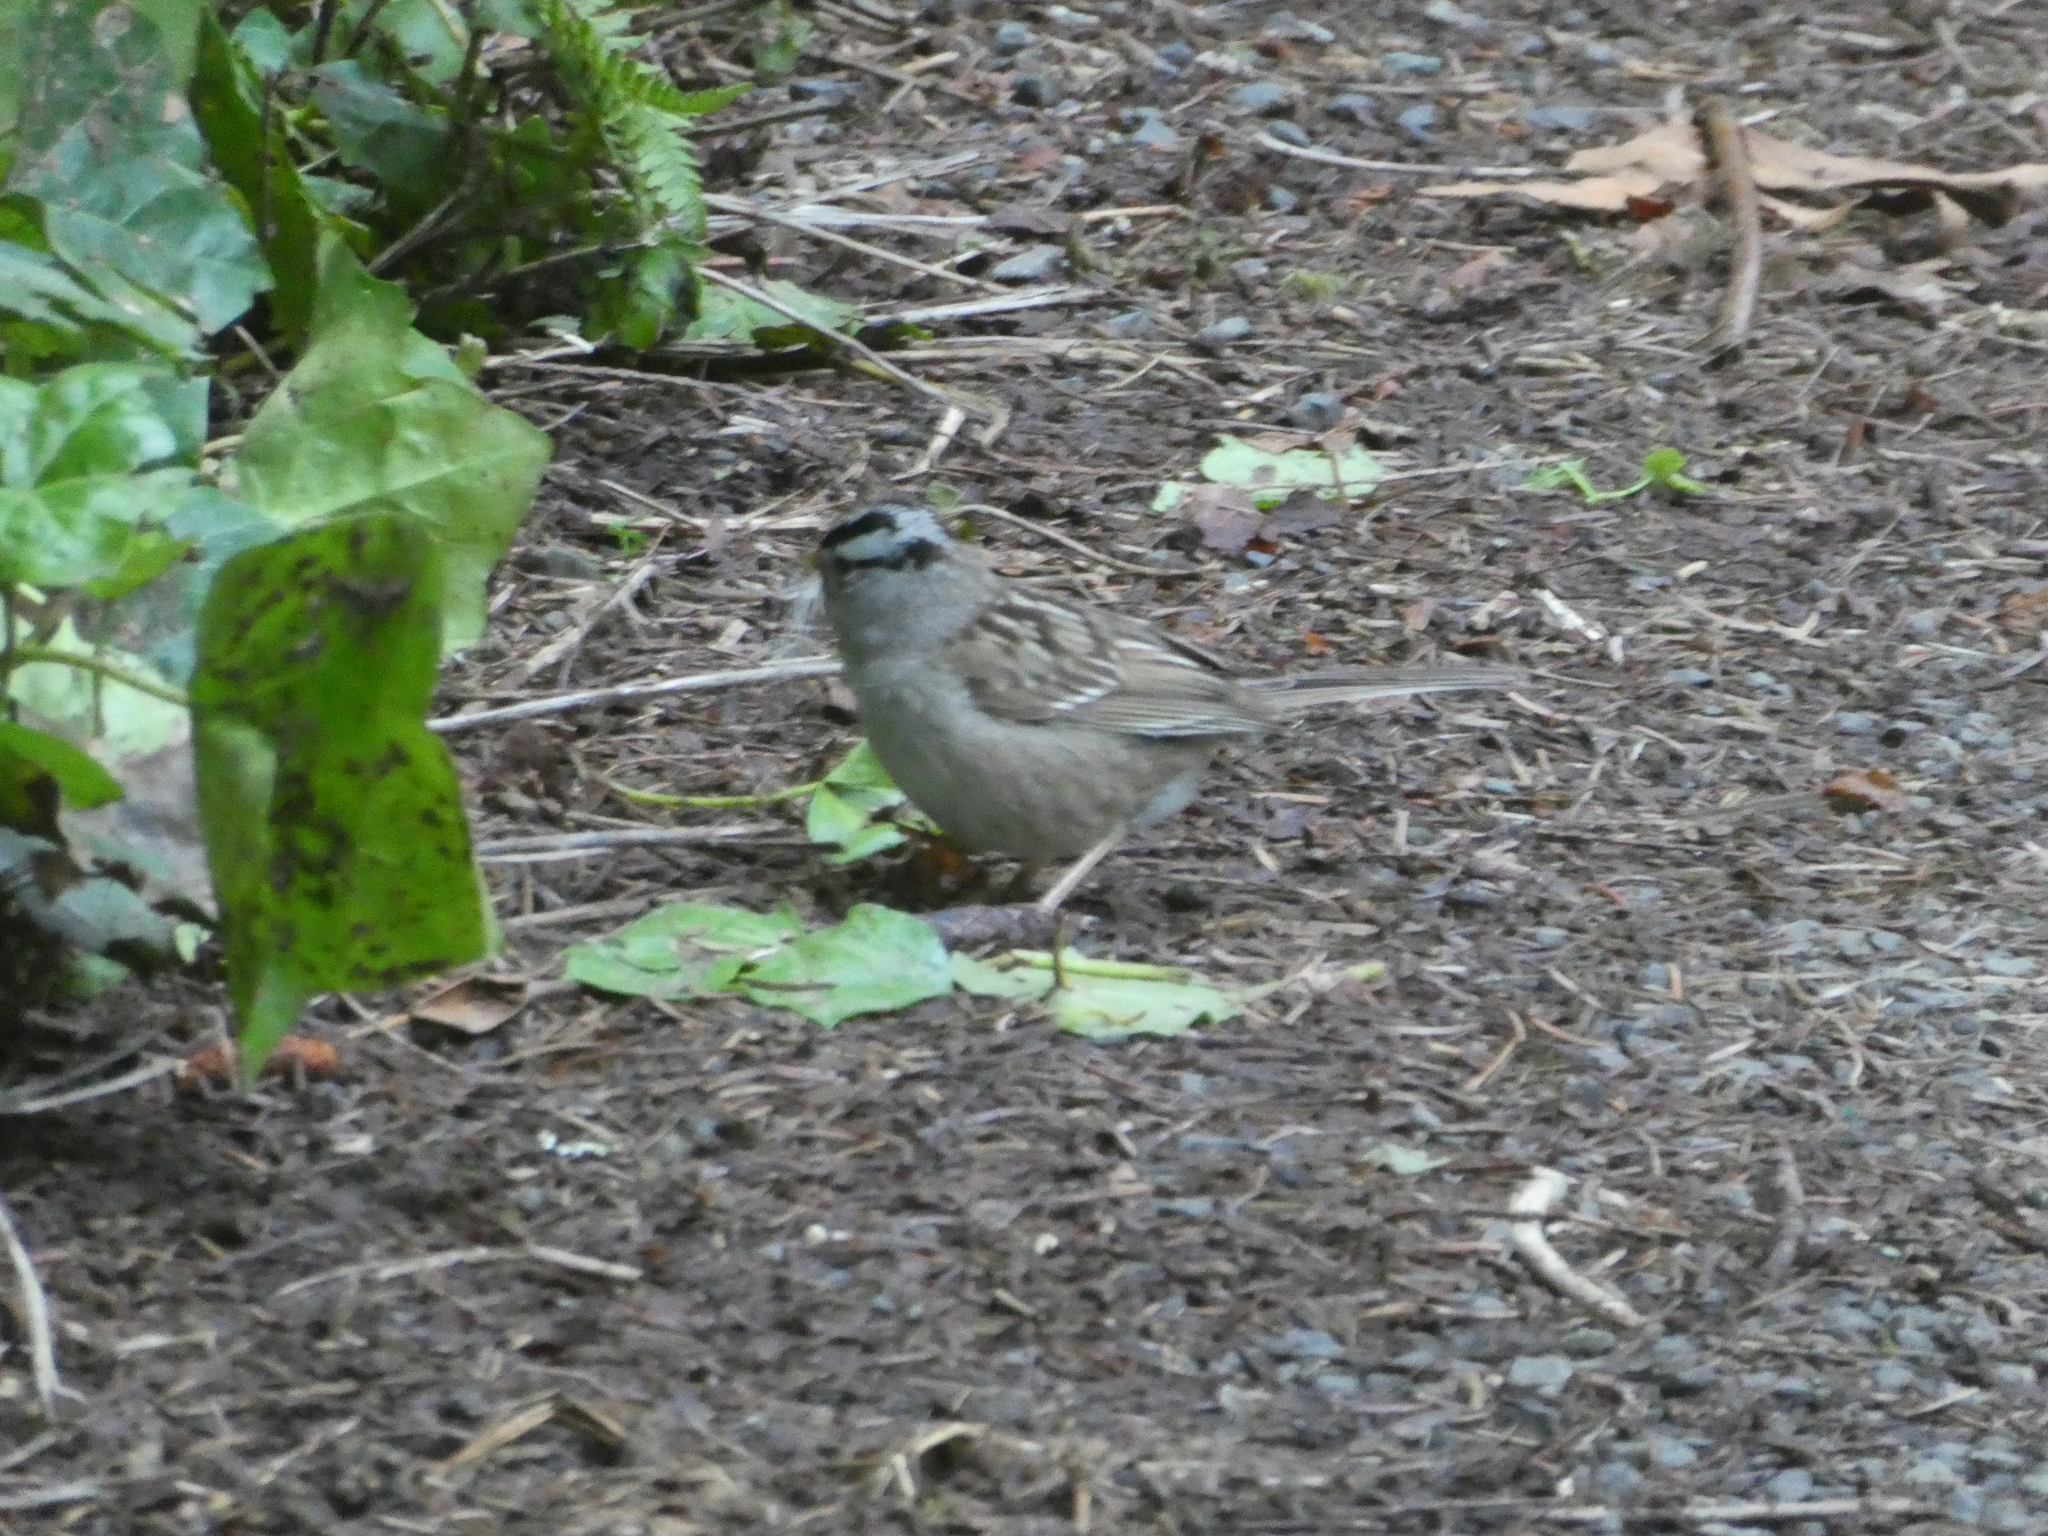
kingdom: Animalia
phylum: Chordata
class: Aves
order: Passeriformes
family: Passerellidae
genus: Zonotrichia
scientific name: Zonotrichia leucophrys
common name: White-crowned sparrow
